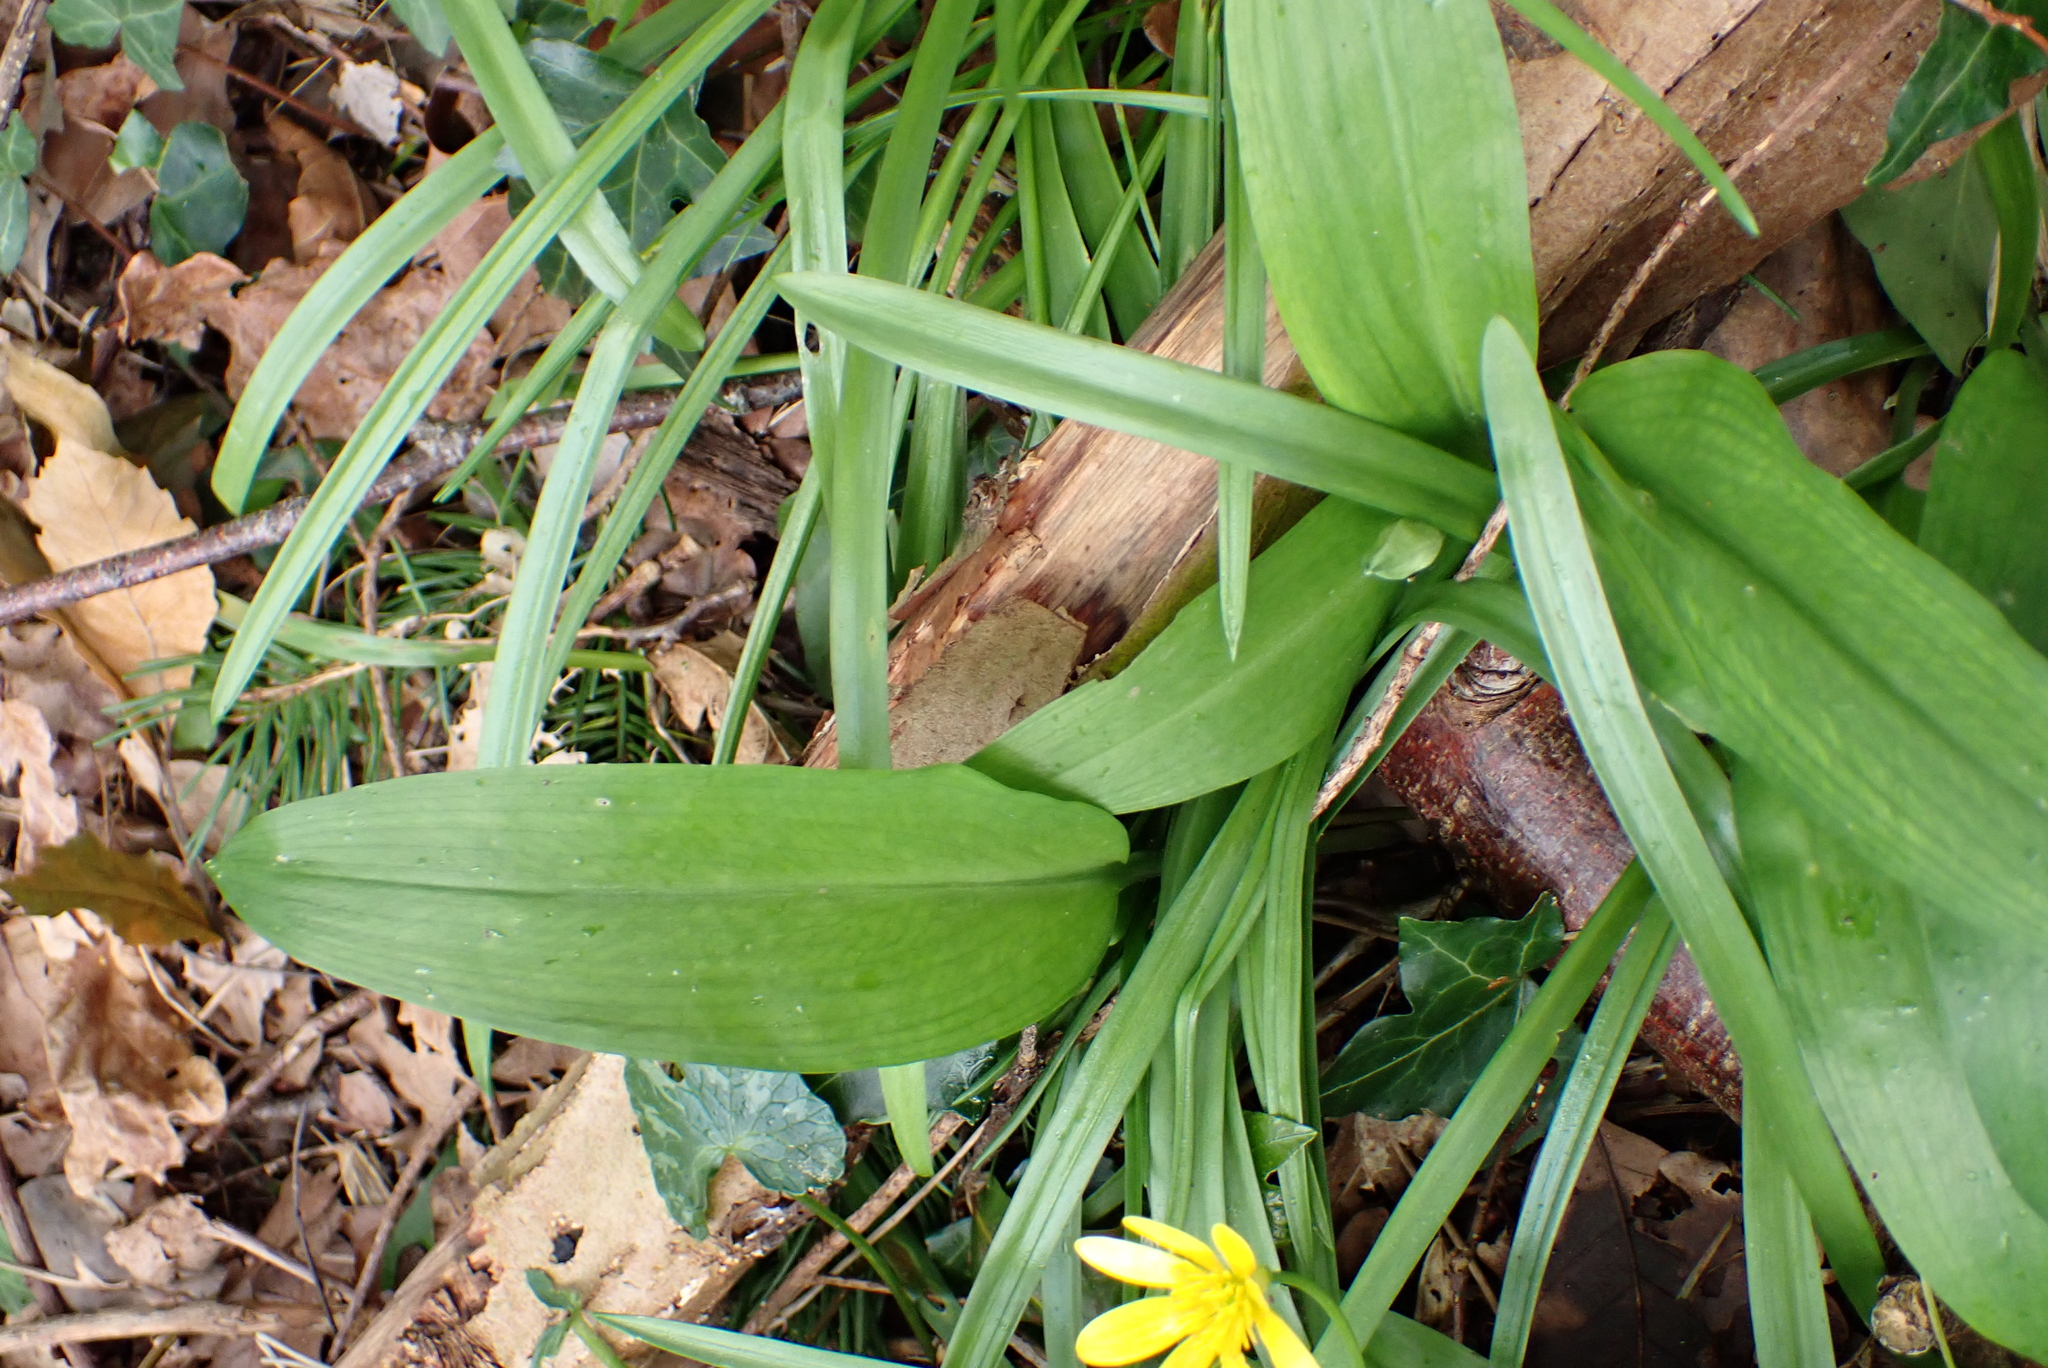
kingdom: Plantae
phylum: Tracheophyta
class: Liliopsida
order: Asparagales
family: Amaryllidaceae
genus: Allium
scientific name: Allium ursinum
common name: Ramsons
